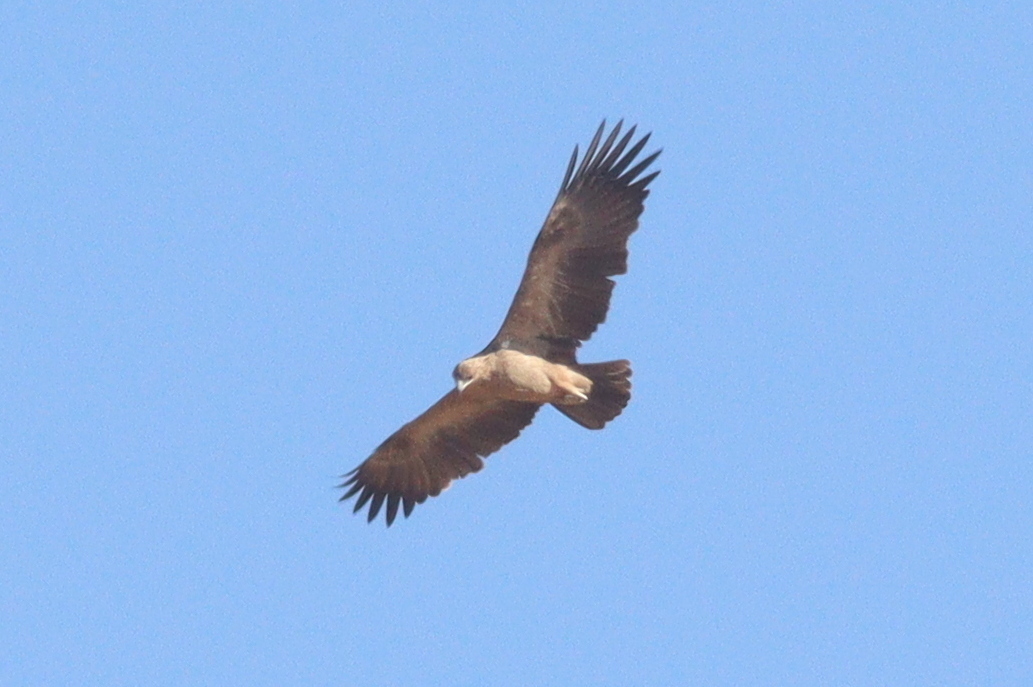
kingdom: Animalia
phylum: Chordata
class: Aves
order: Accipitriformes
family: Accipitridae
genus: Aquila
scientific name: Aquila rapax
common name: Tawny eagle
